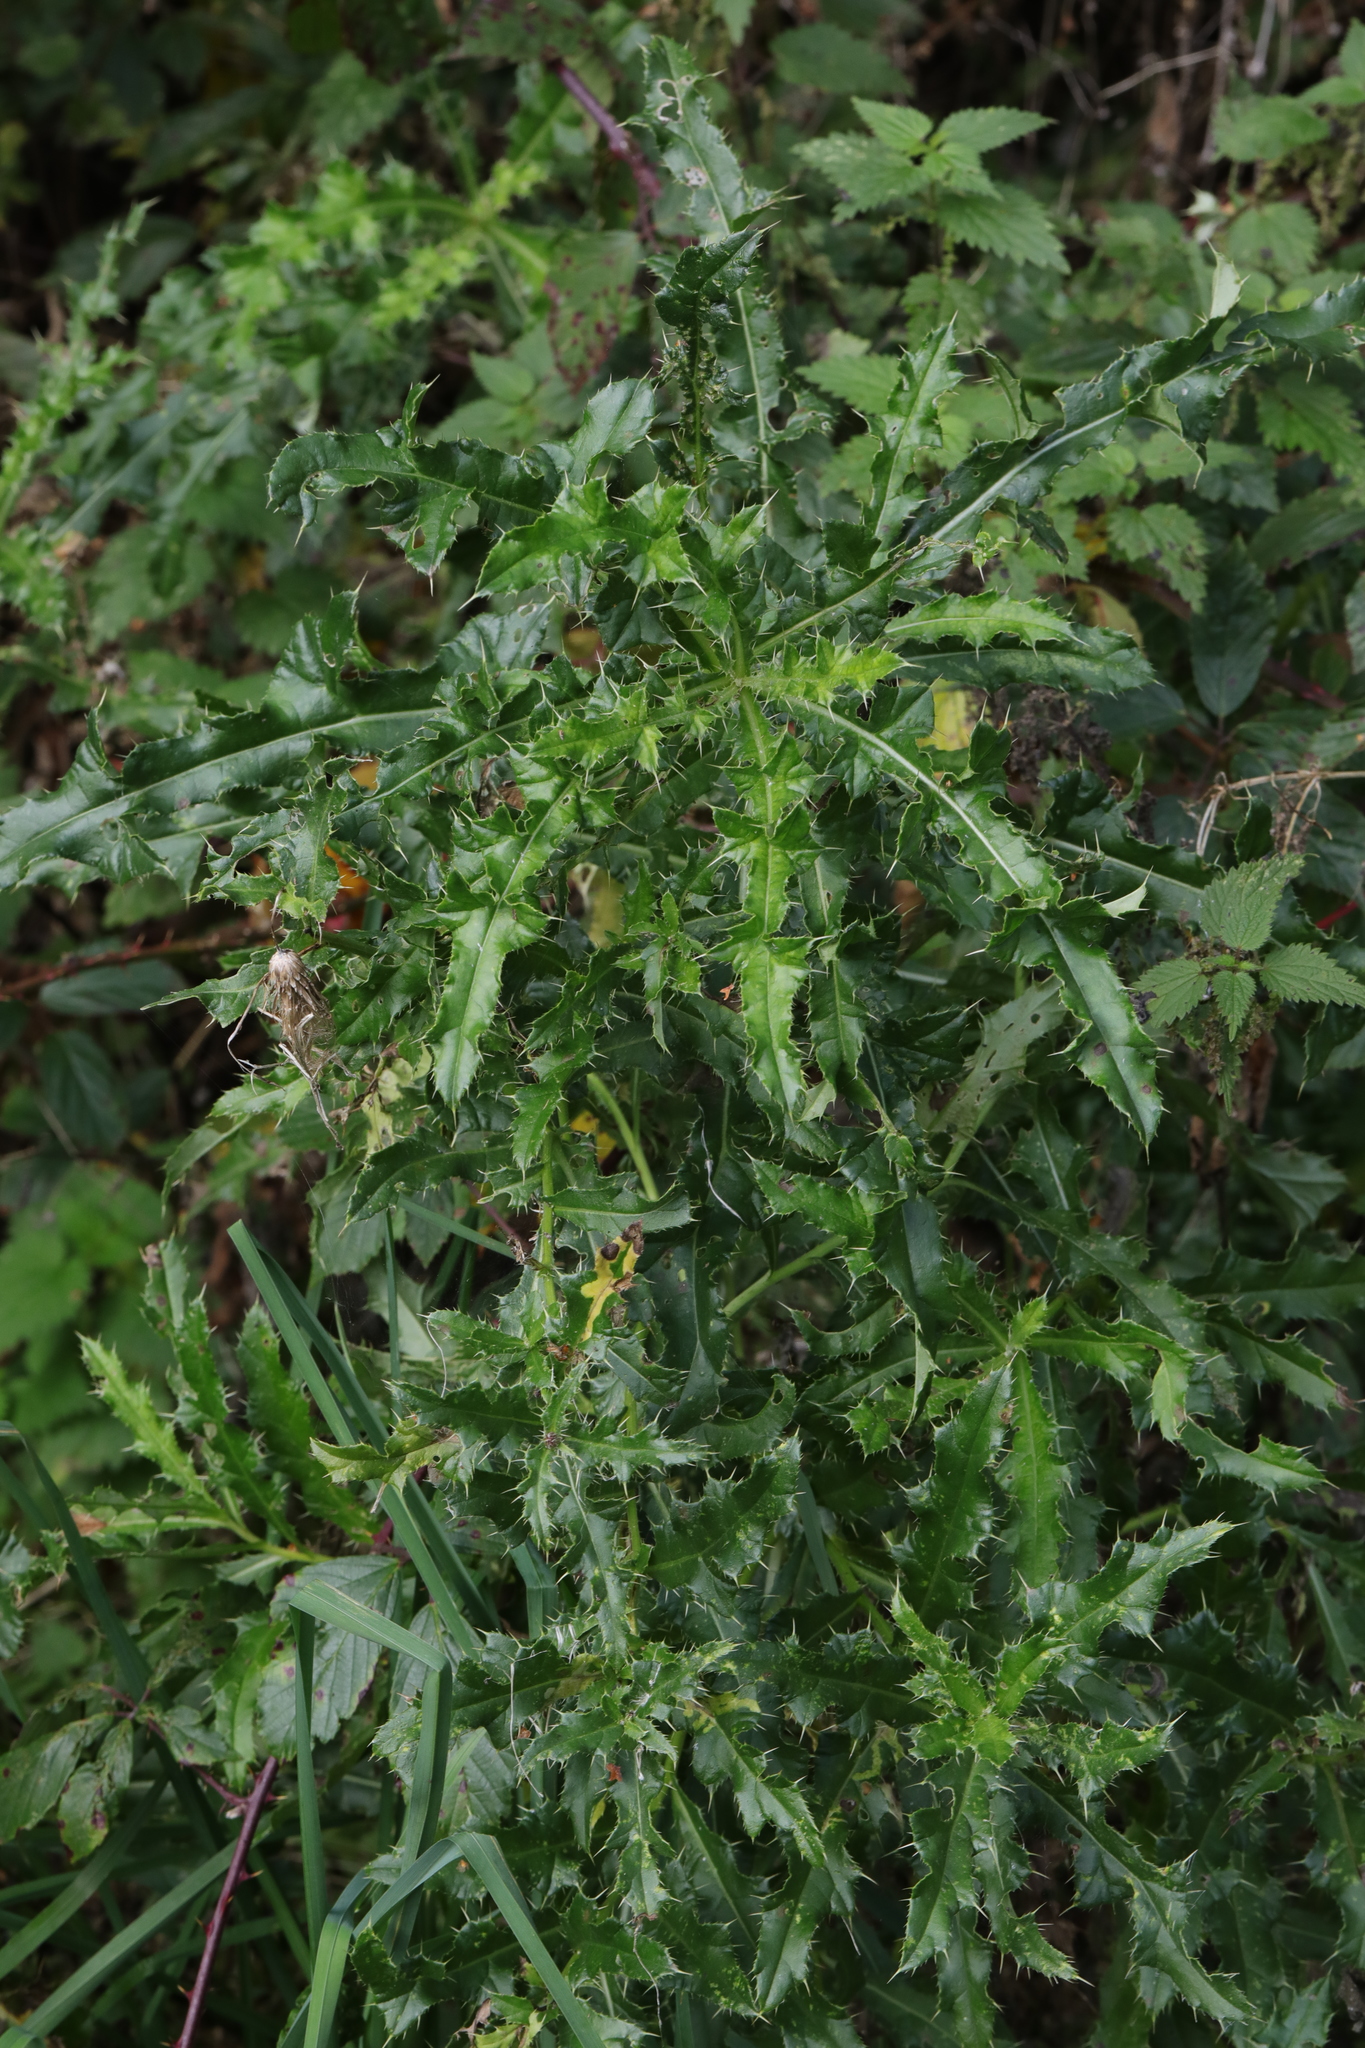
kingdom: Plantae
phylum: Tracheophyta
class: Magnoliopsida
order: Asterales
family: Asteraceae
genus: Cirsium
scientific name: Cirsium arvense
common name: Creeping thistle
